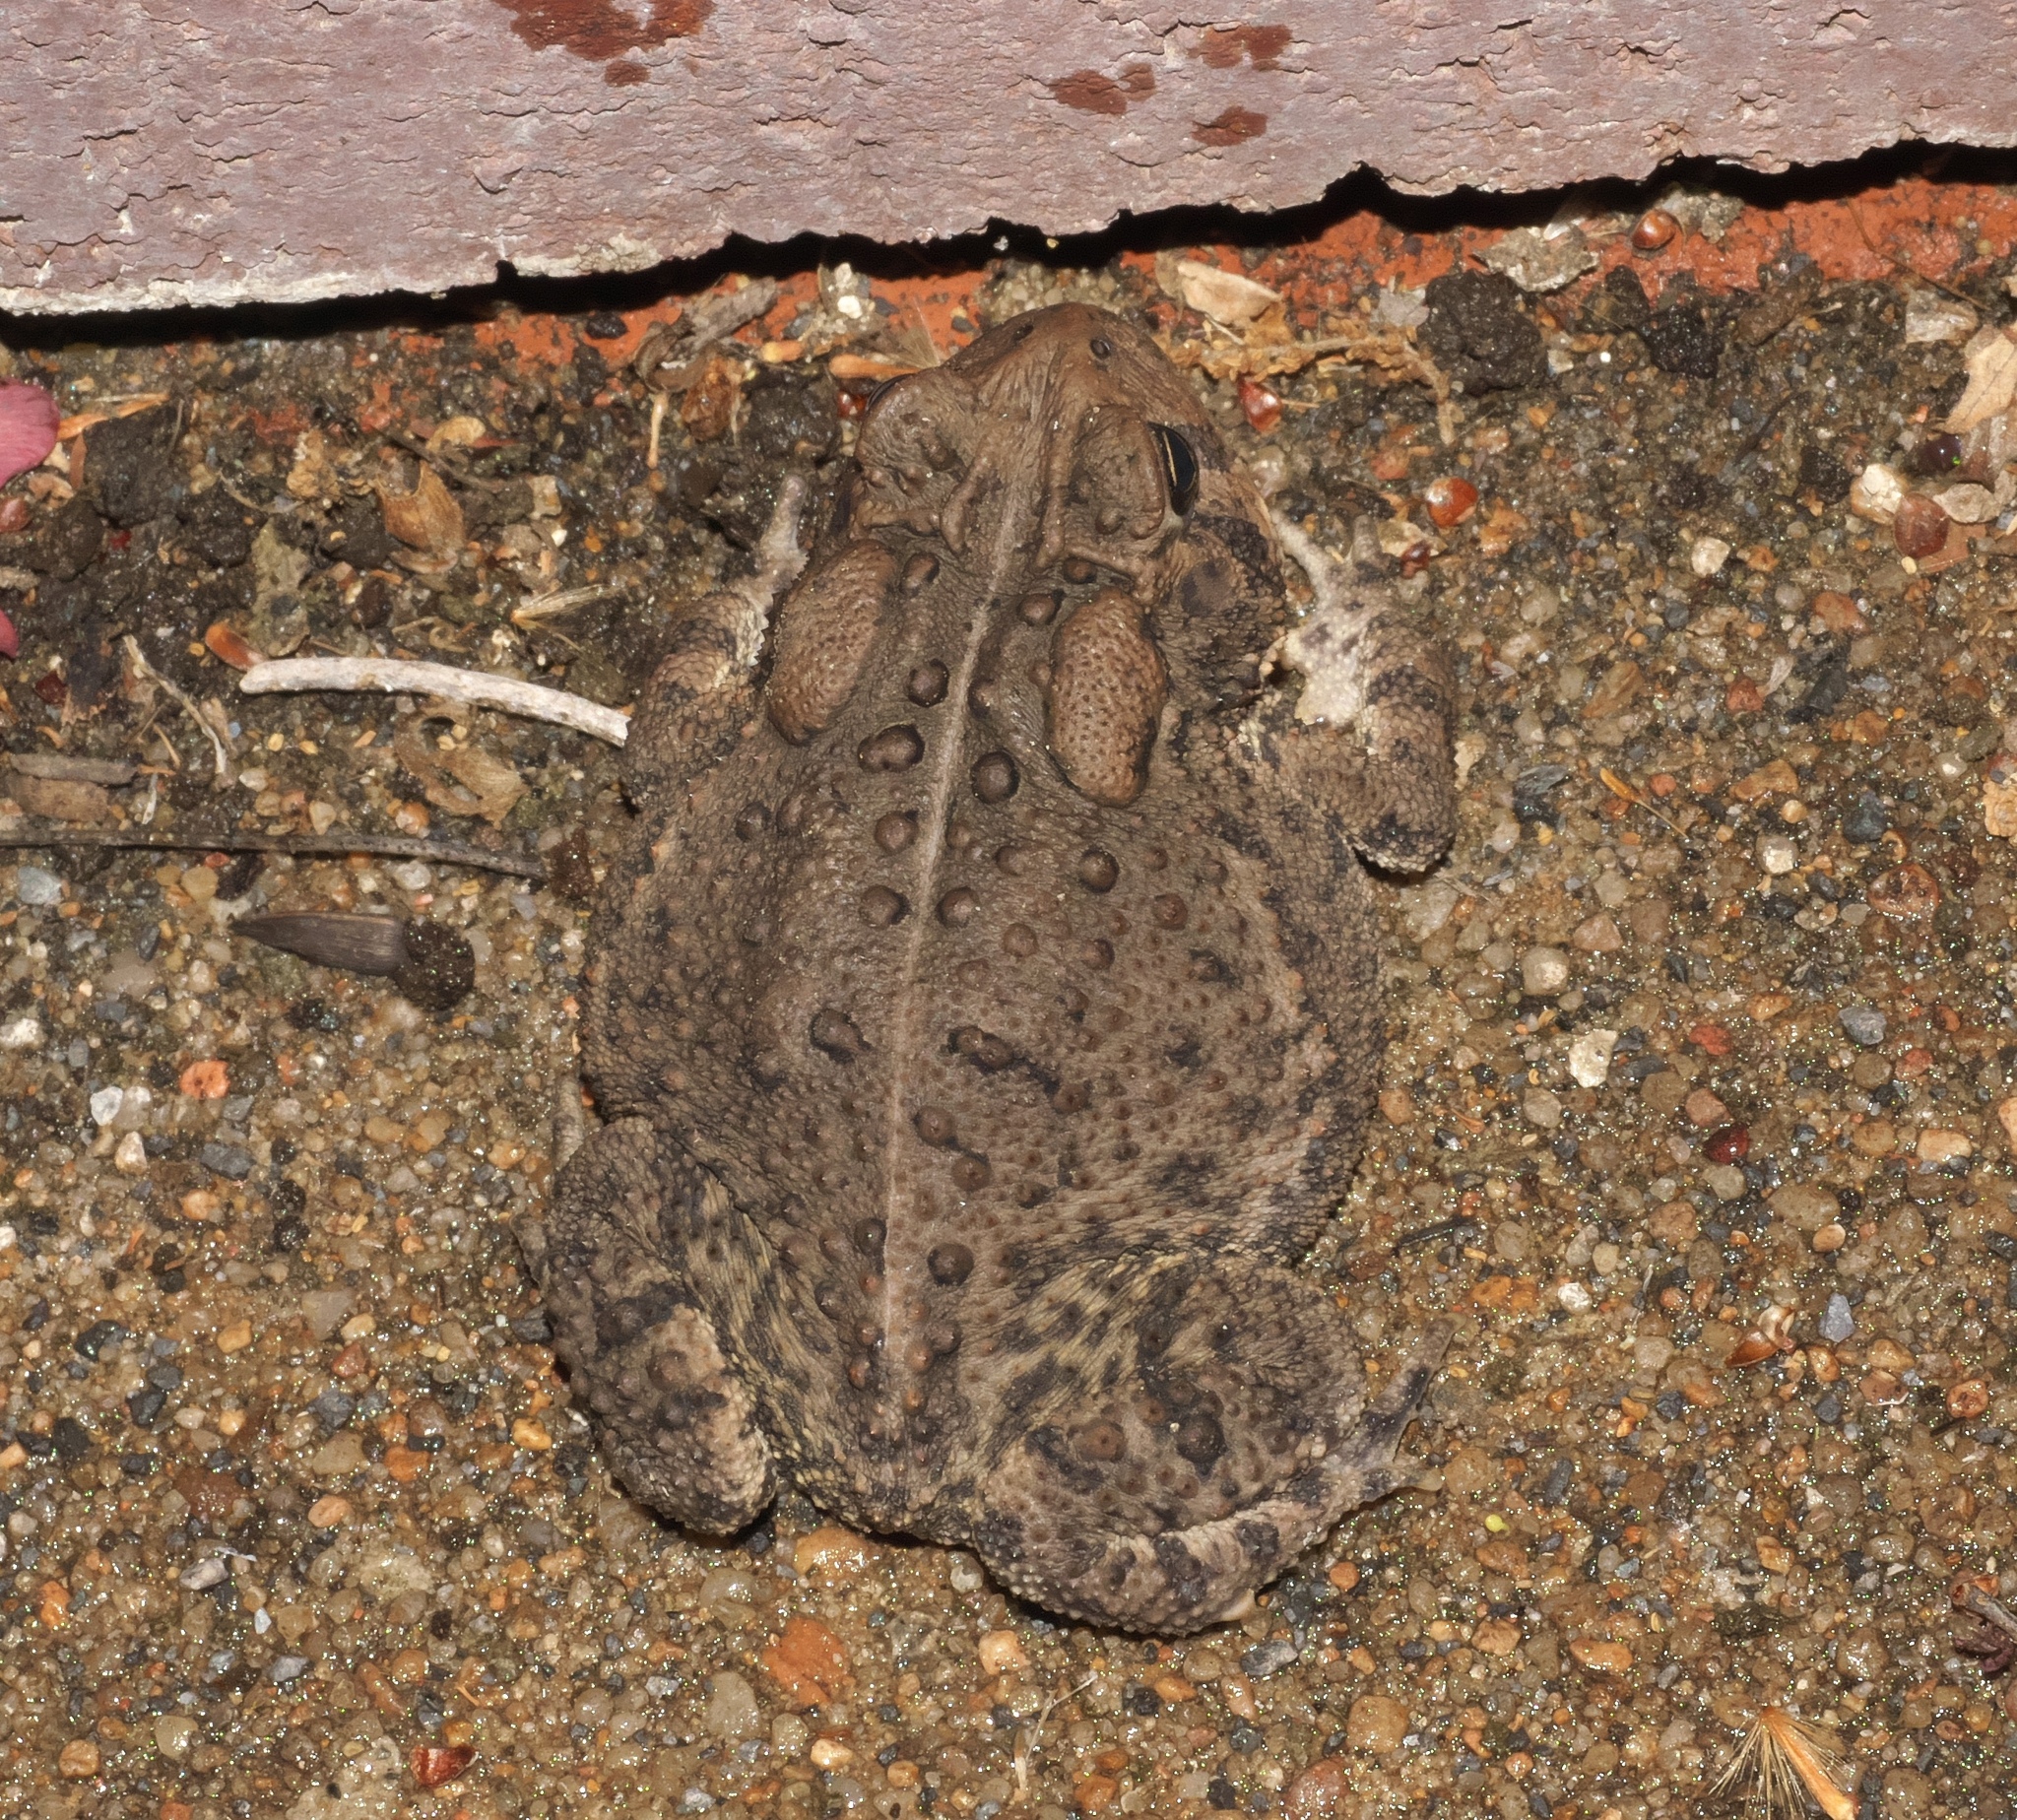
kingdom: Animalia
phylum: Chordata
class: Amphibia
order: Anura
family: Bufonidae
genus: Anaxyrus
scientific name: Anaxyrus americanus
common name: American toad
